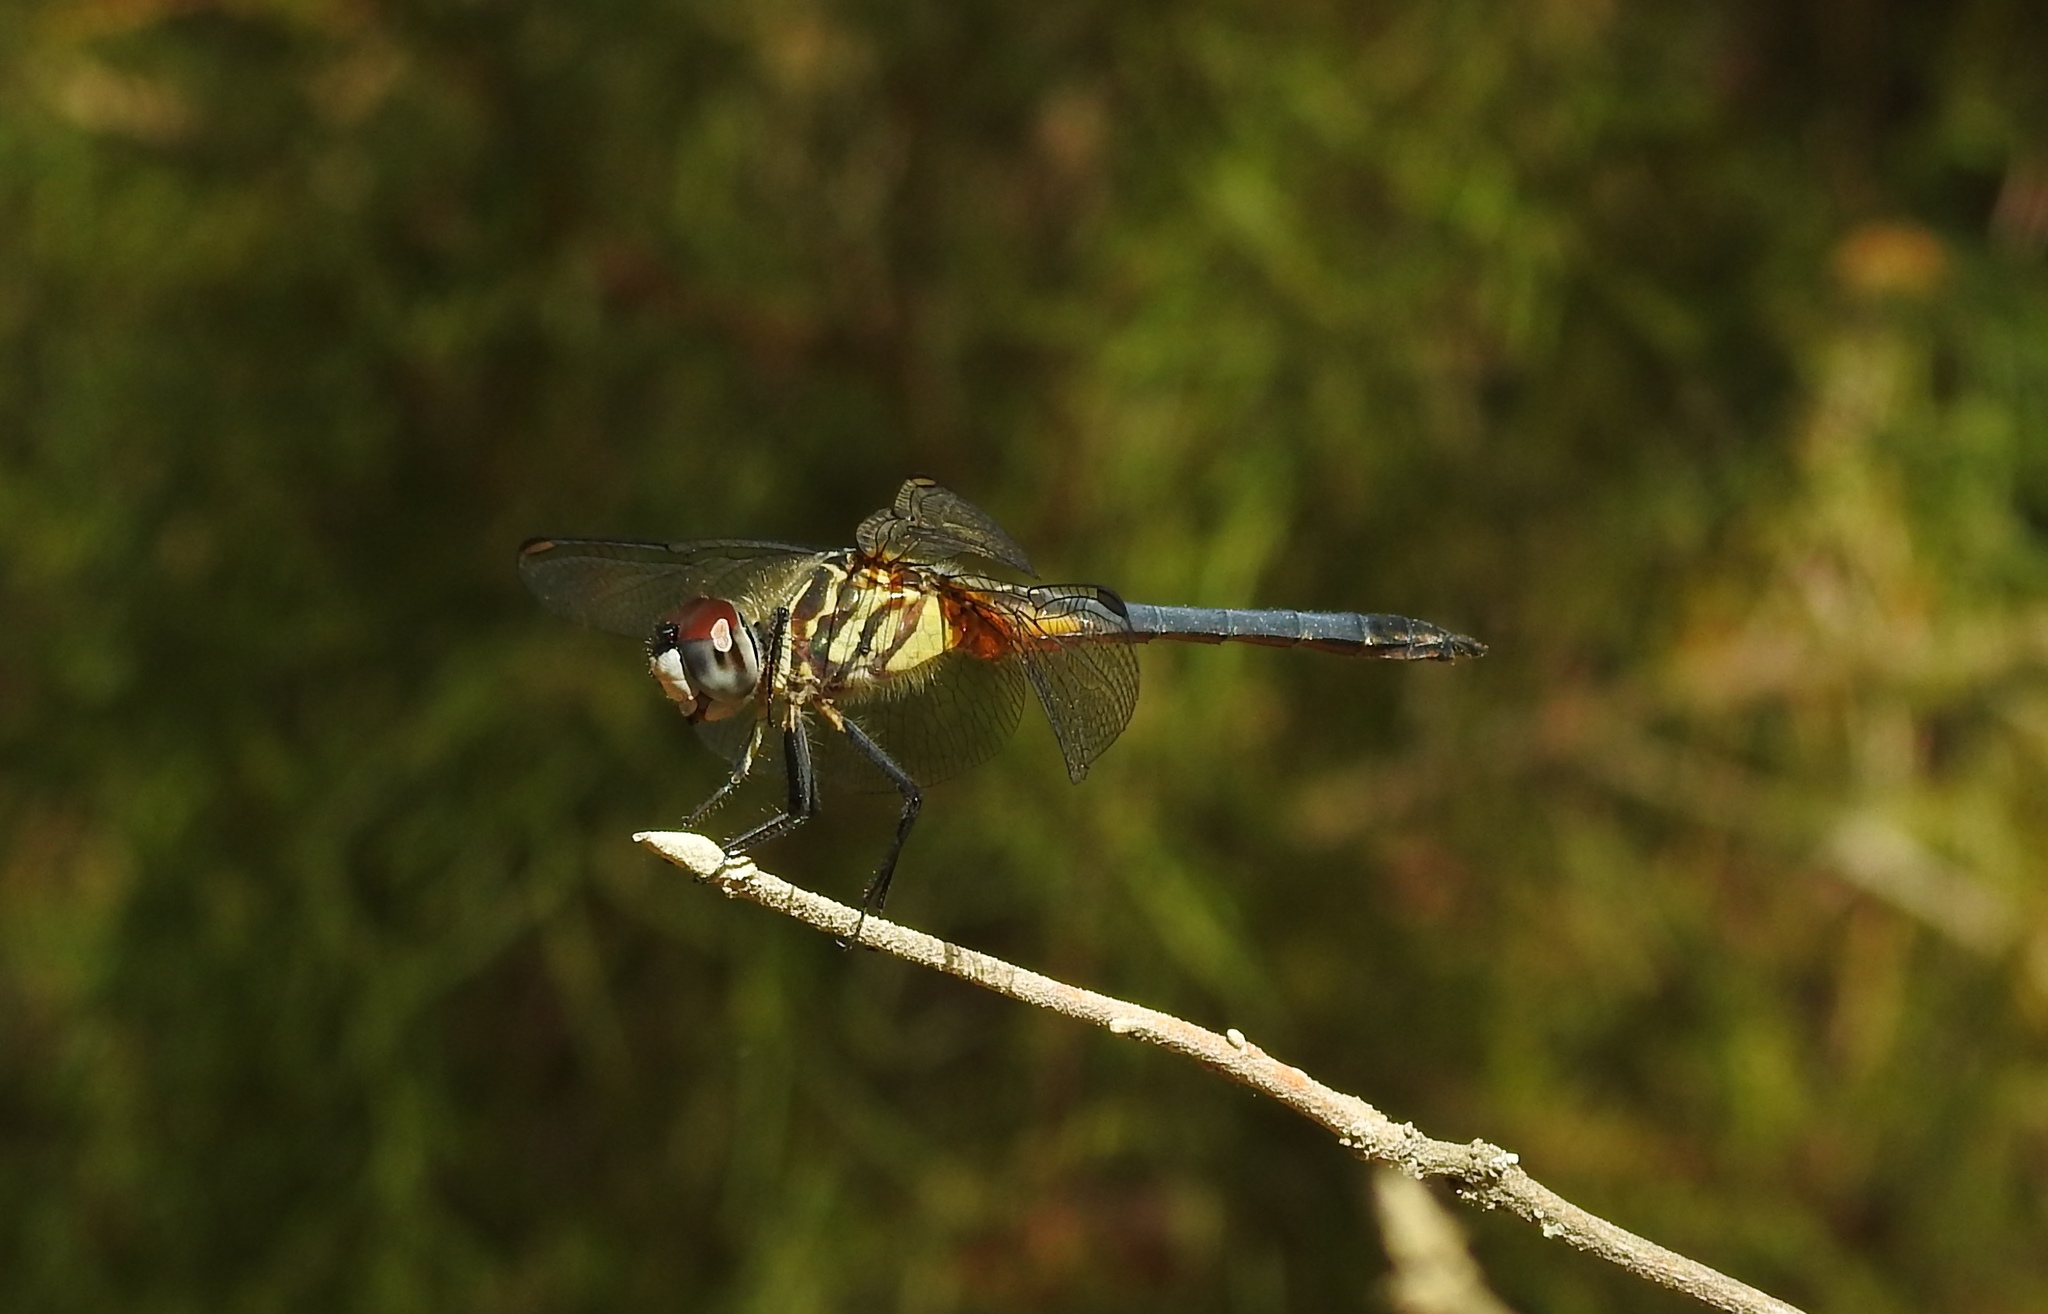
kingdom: Animalia
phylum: Arthropoda
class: Insecta
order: Odonata
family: Libellulidae
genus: Pachydiplax
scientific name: Pachydiplax longipennis
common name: Blue dasher
